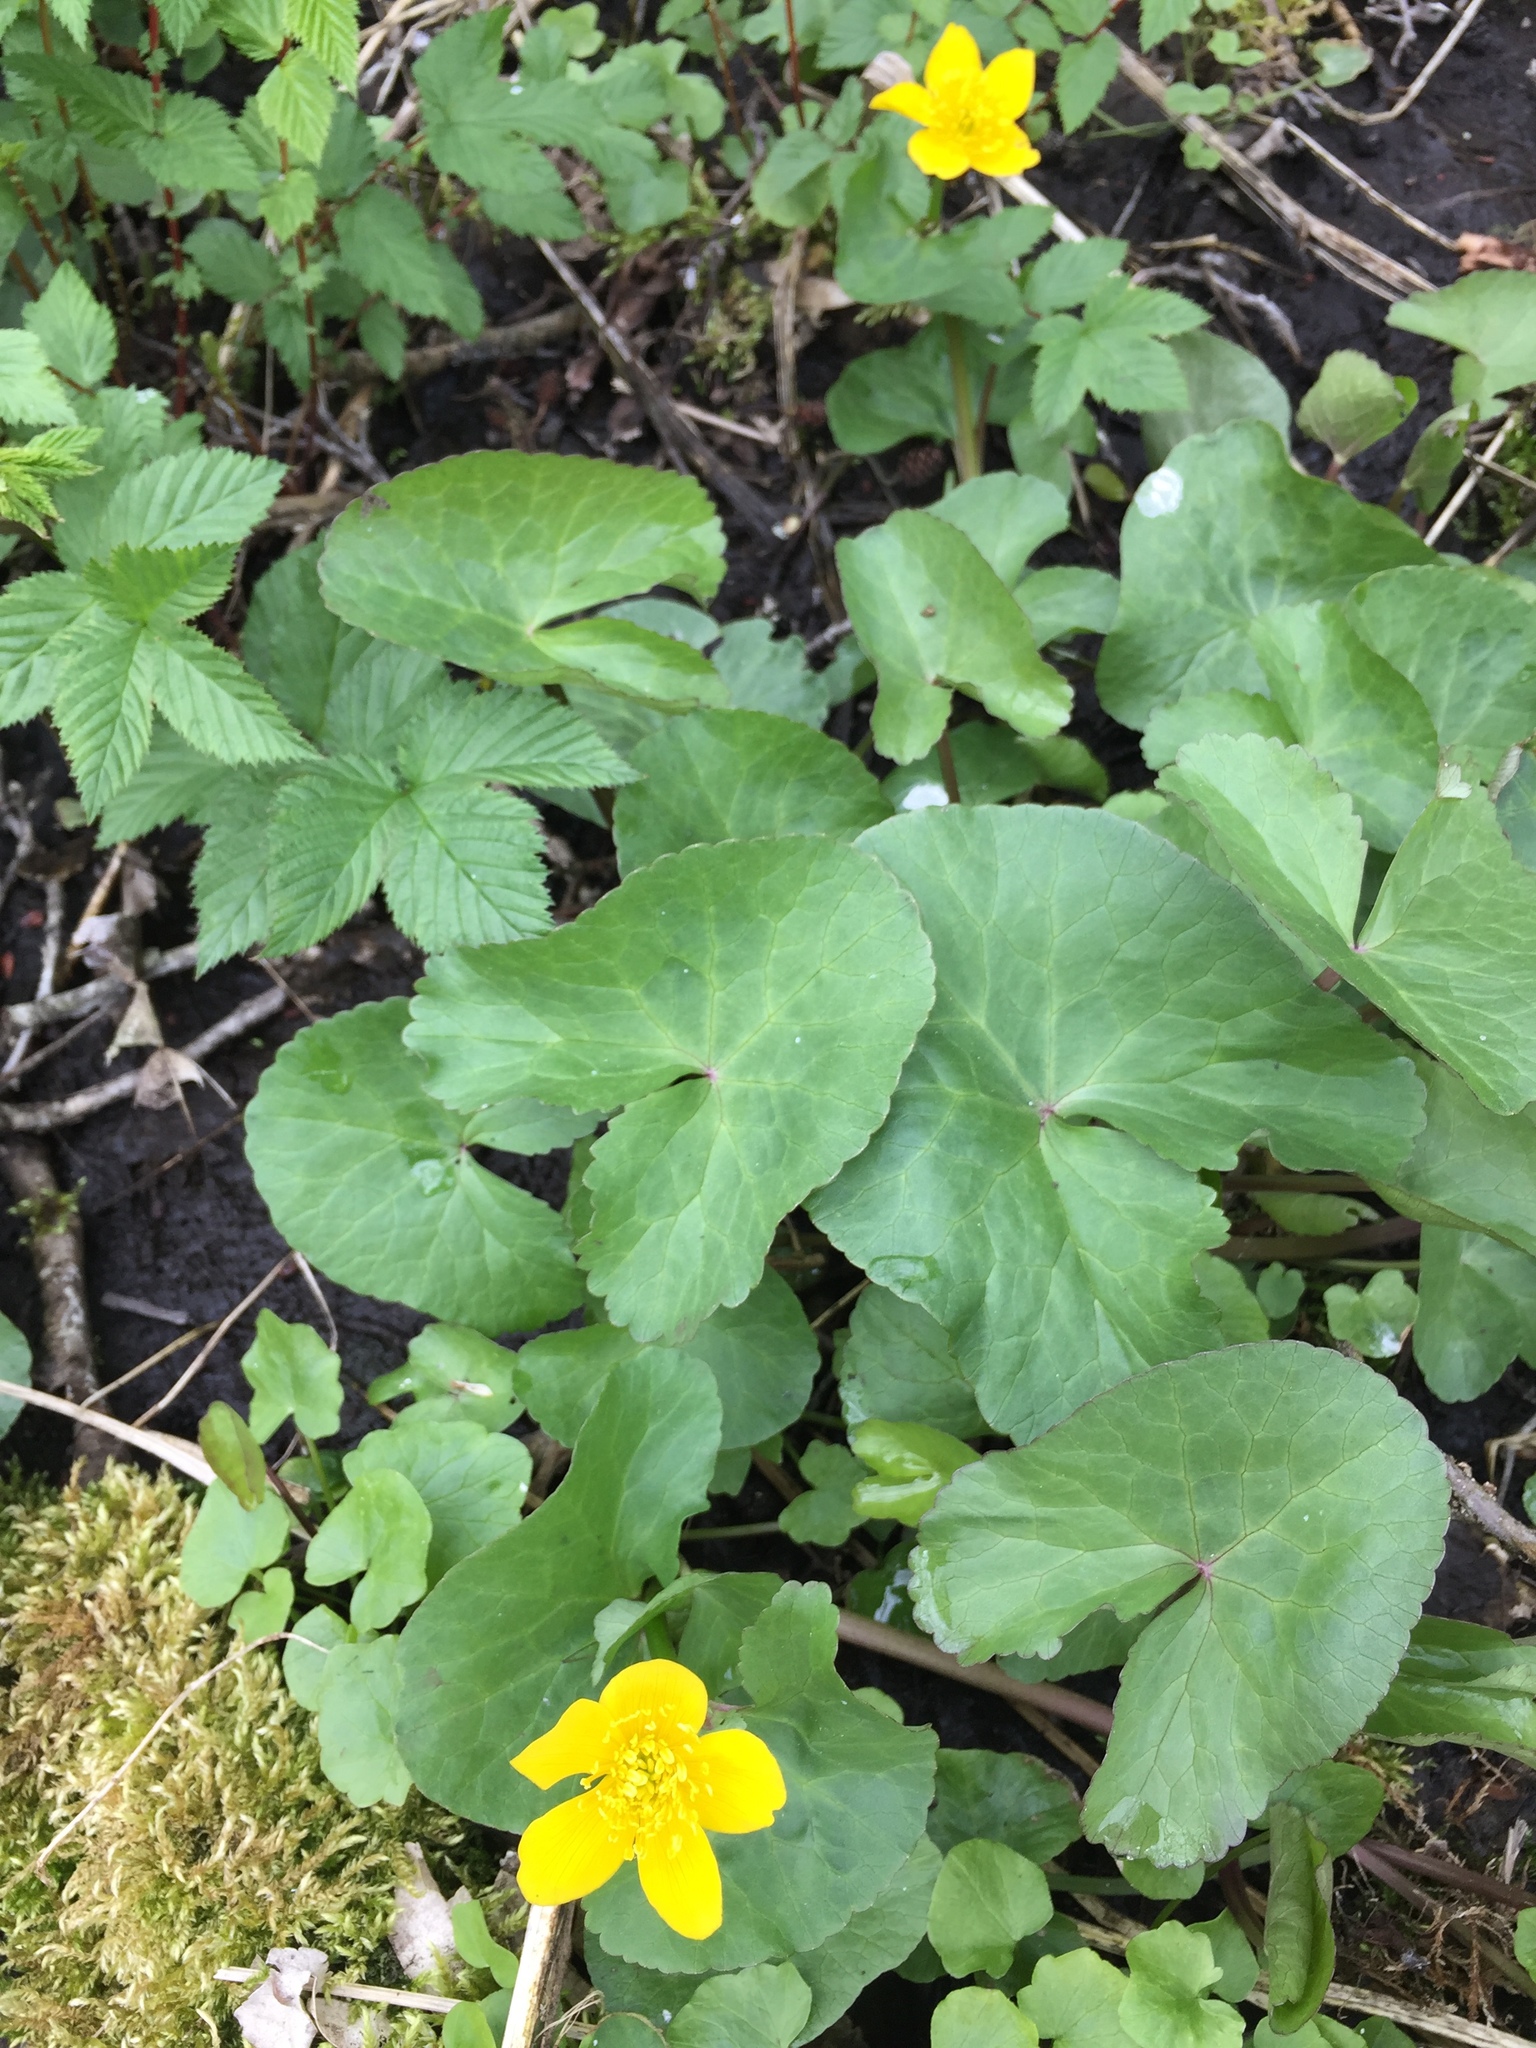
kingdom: Plantae
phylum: Tracheophyta
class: Magnoliopsida
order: Ranunculales
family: Ranunculaceae
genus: Caltha
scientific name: Caltha palustris
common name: Marsh marigold
